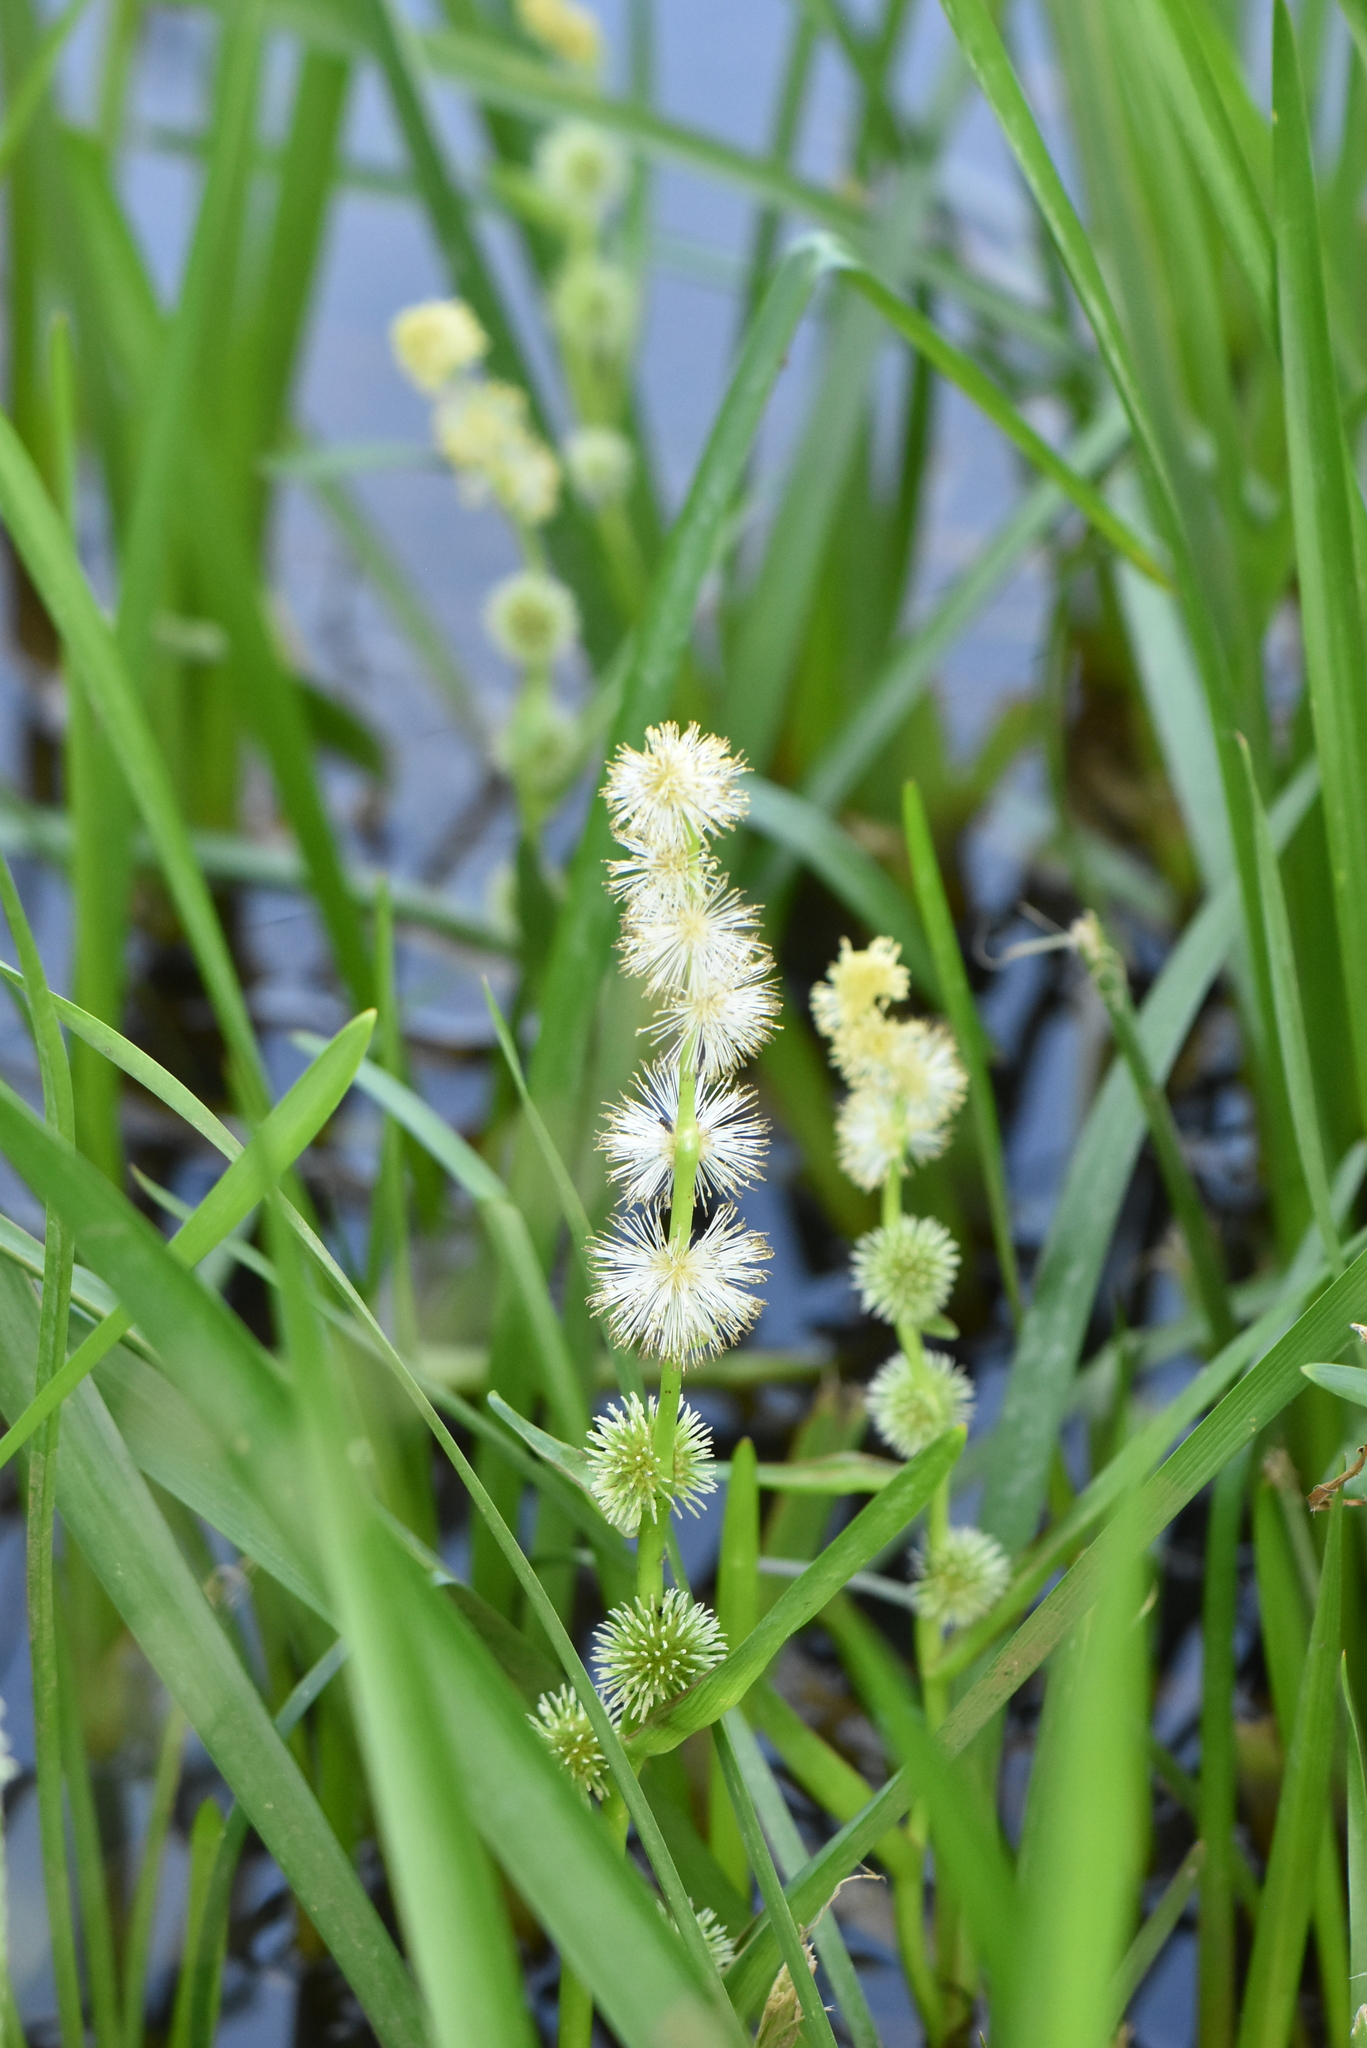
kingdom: Plantae
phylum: Tracheophyta
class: Liliopsida
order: Poales
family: Typhaceae
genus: Sparganium
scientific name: Sparganium emersum
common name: Unbranched bur-reed
